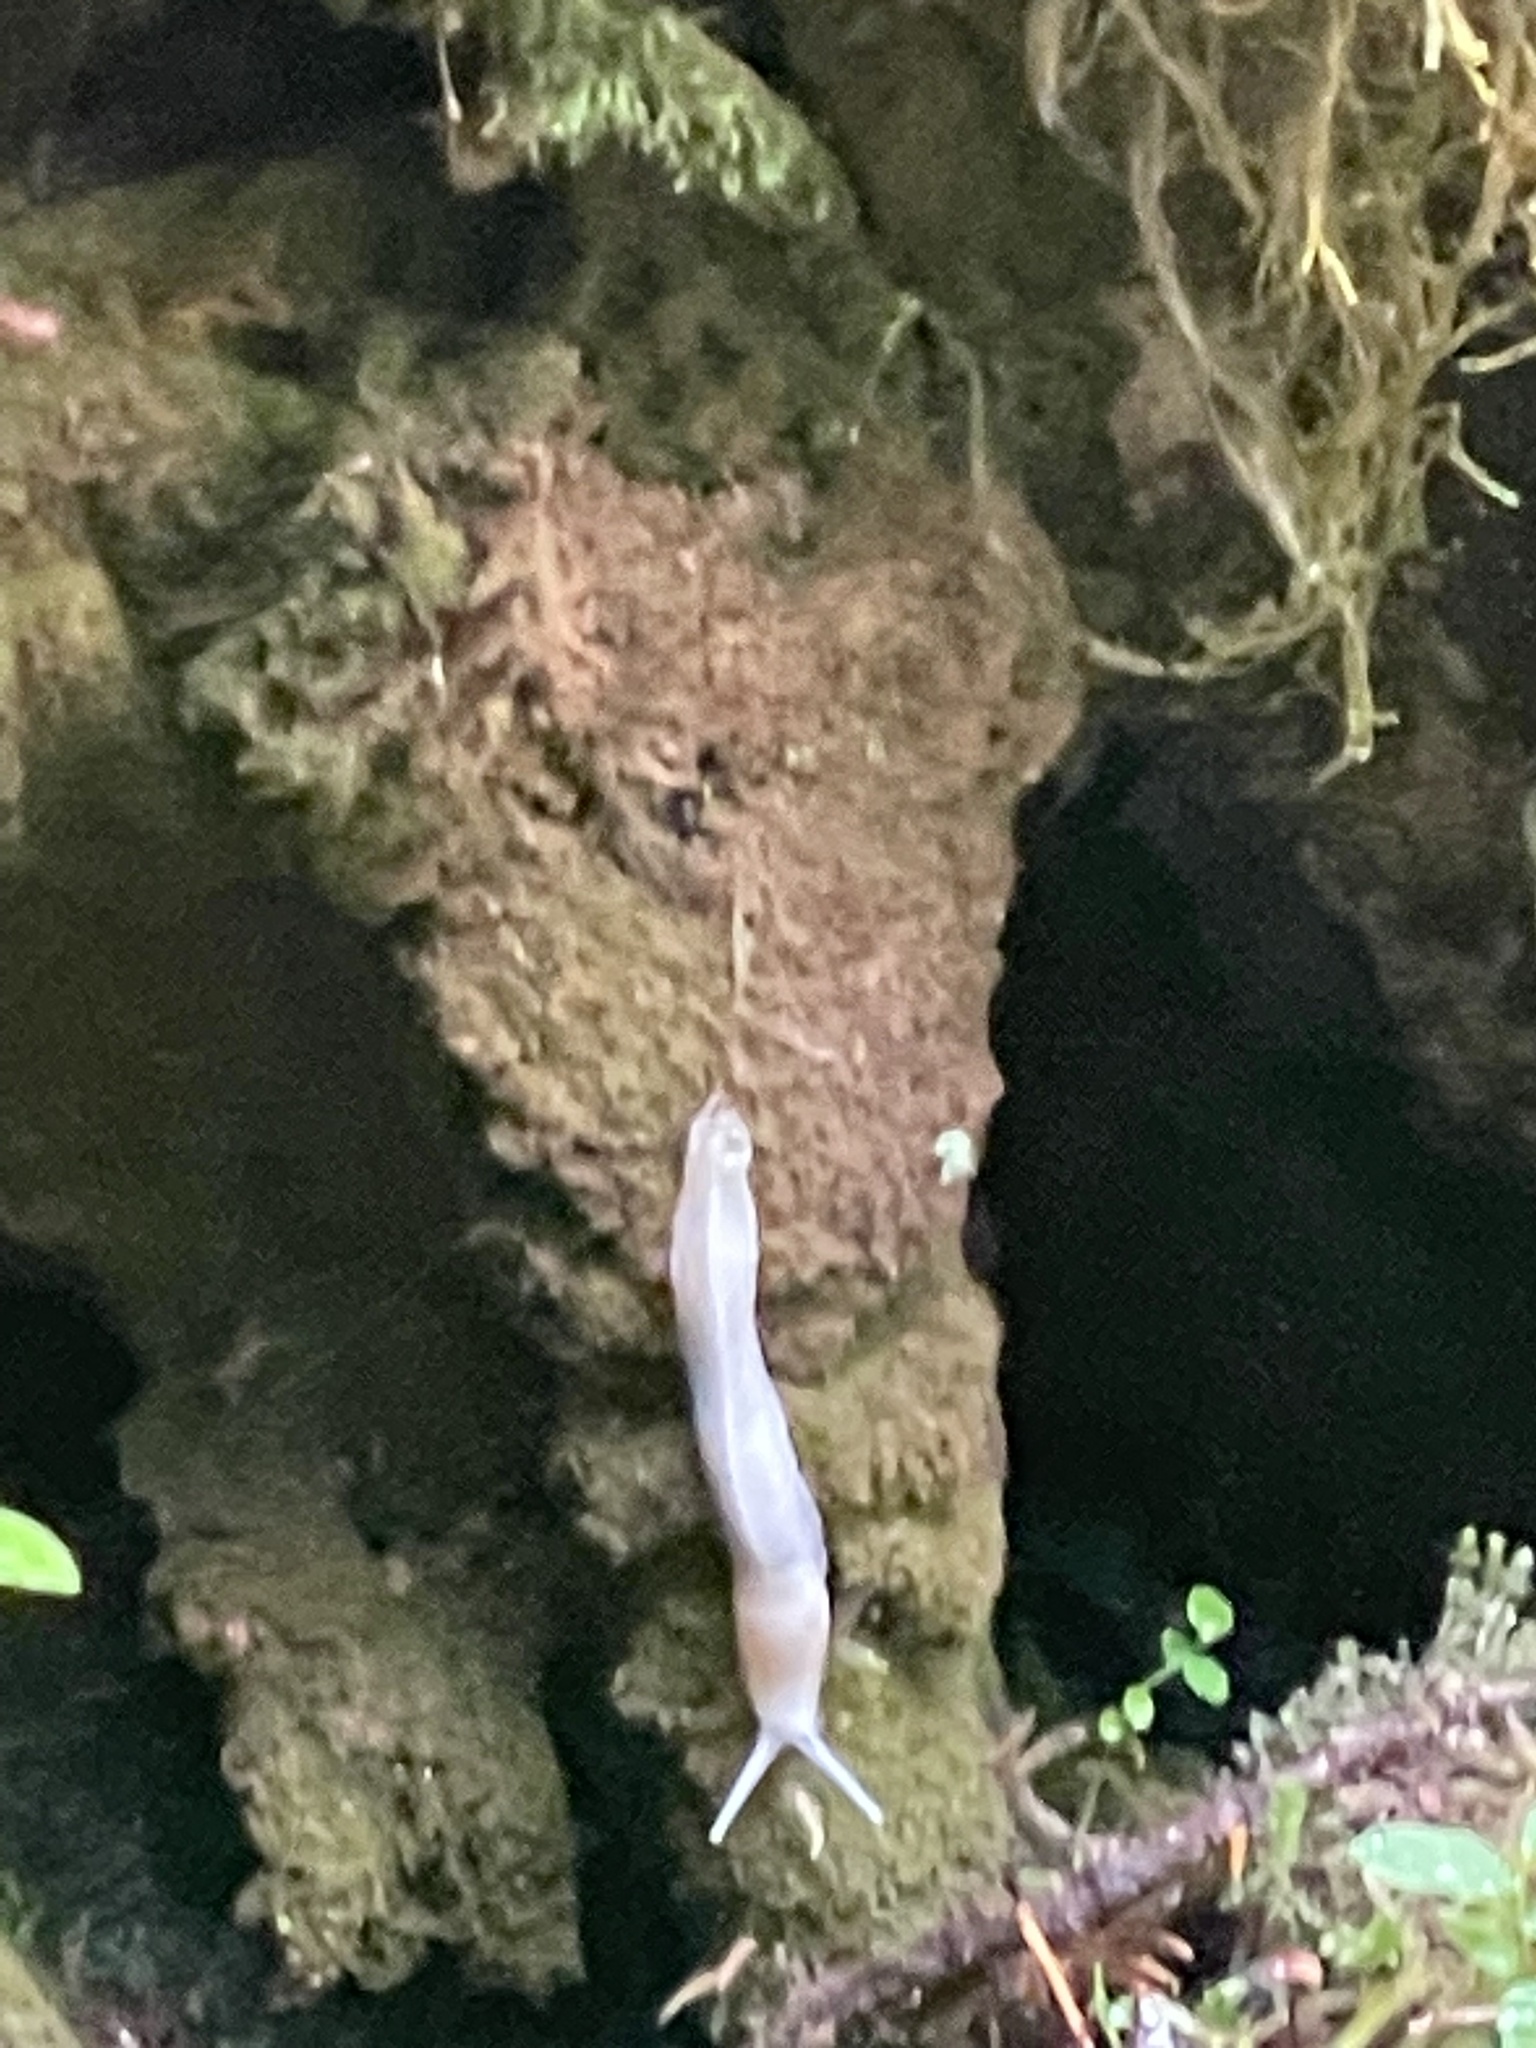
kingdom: Animalia
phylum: Mollusca
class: Gastropoda
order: Stylommatophora
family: Ariolimacidae
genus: Ariolimax
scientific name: Ariolimax columbianus
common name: Pacific banana slug
